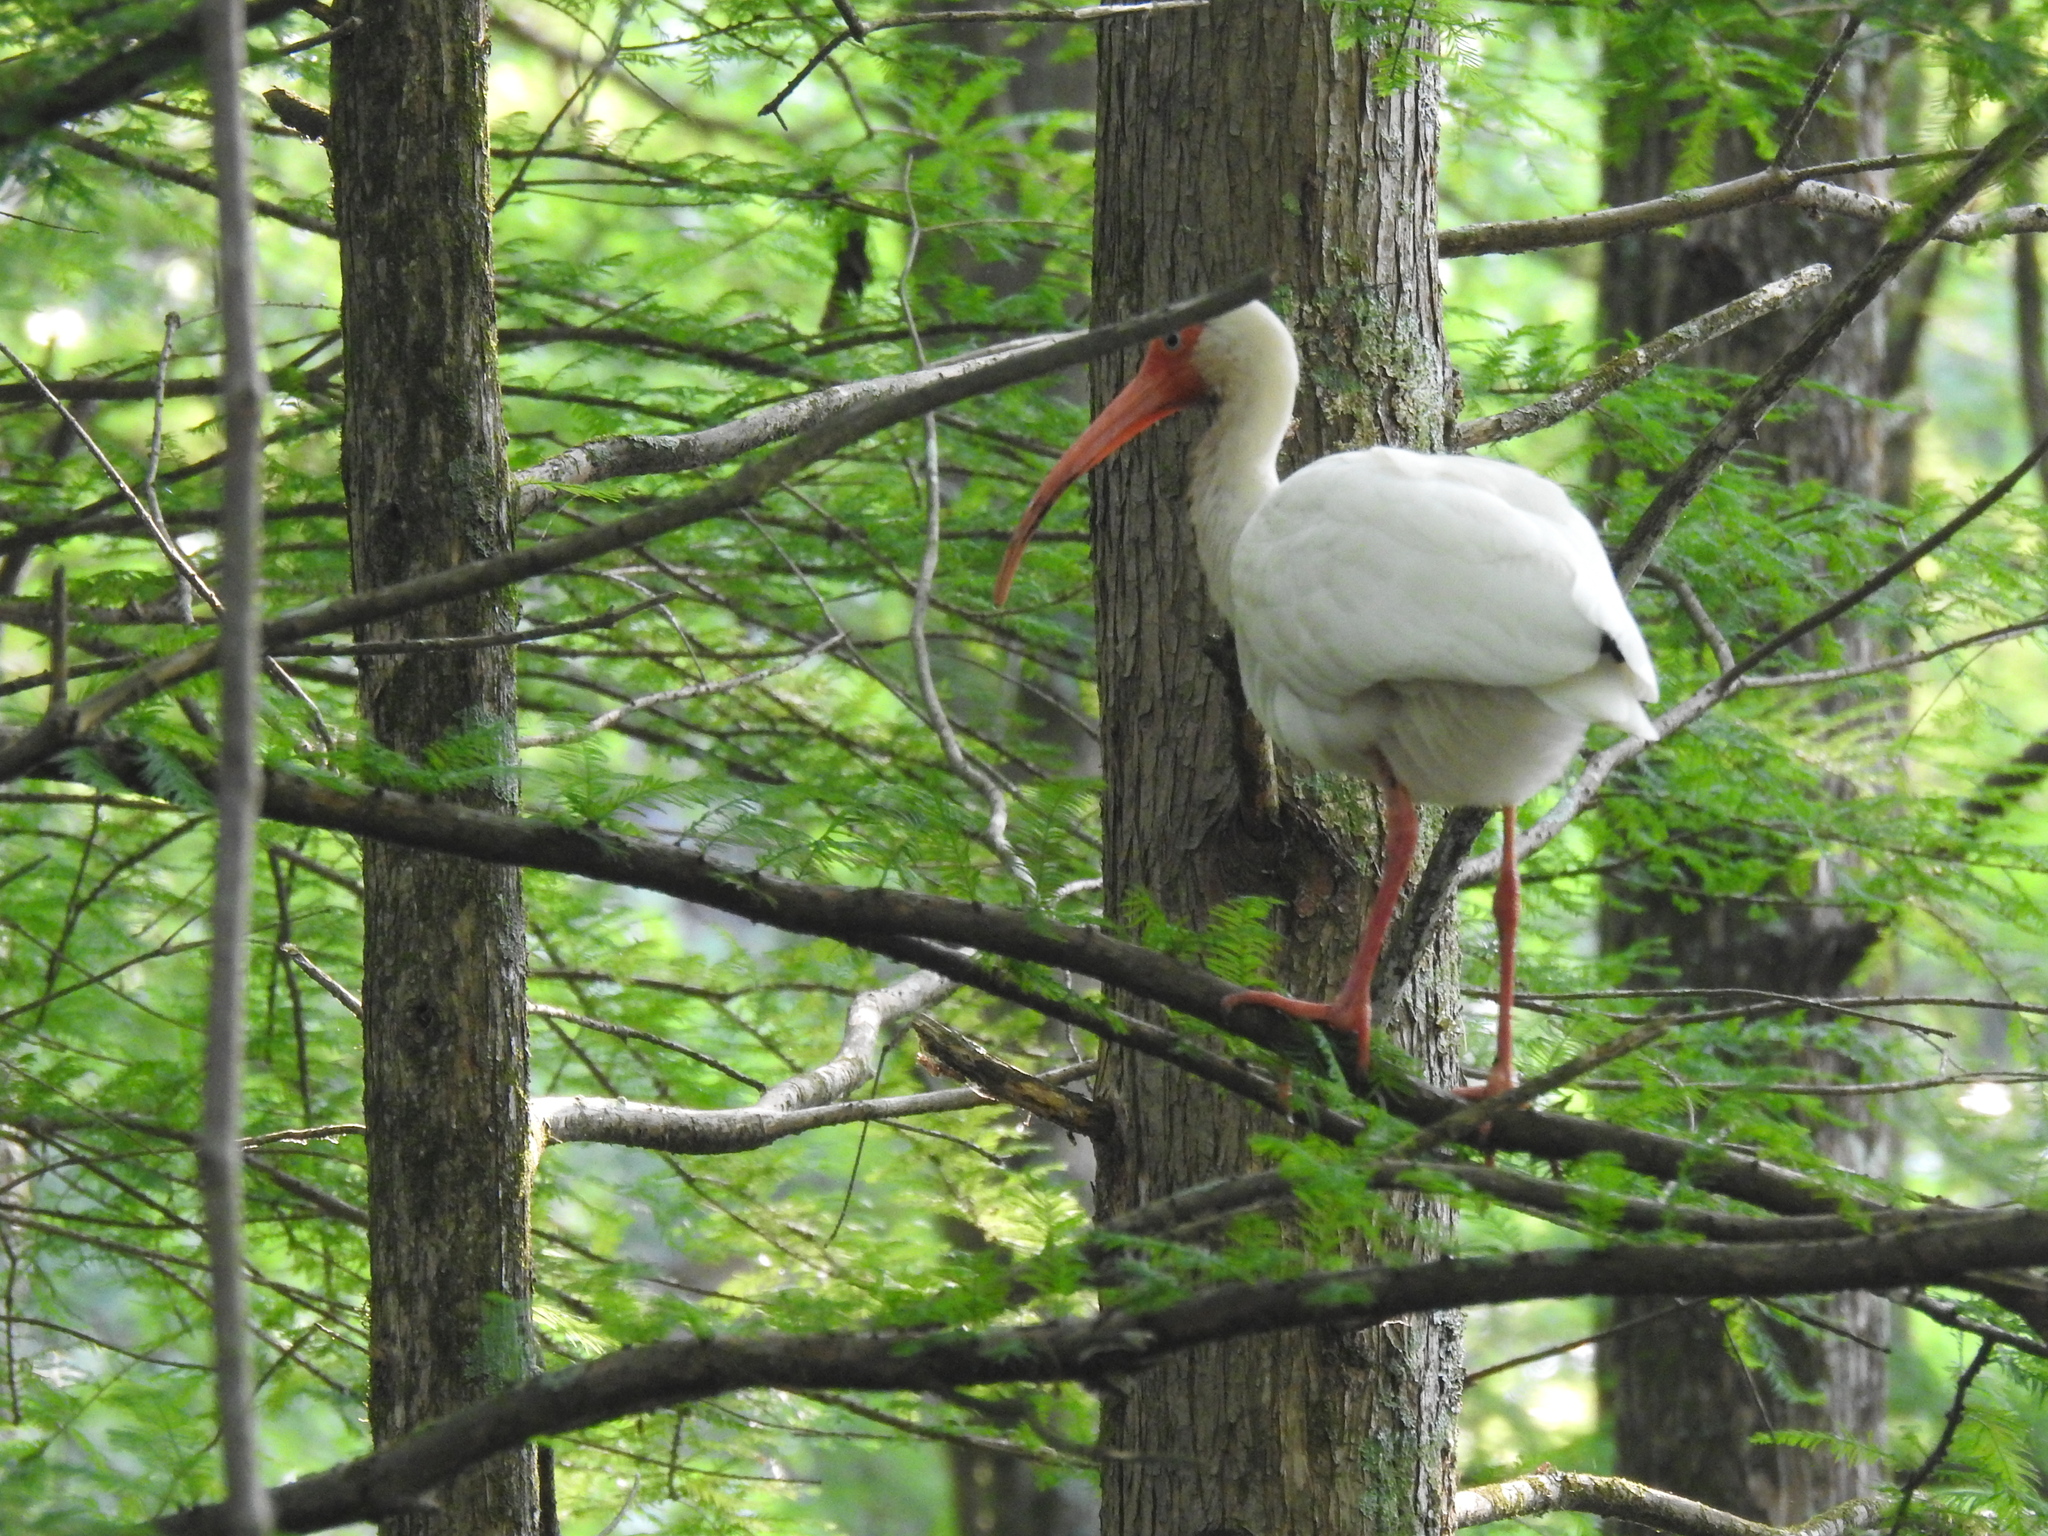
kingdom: Animalia
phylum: Chordata
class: Aves
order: Pelecaniformes
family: Threskiornithidae
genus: Eudocimus
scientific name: Eudocimus albus
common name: White ibis
